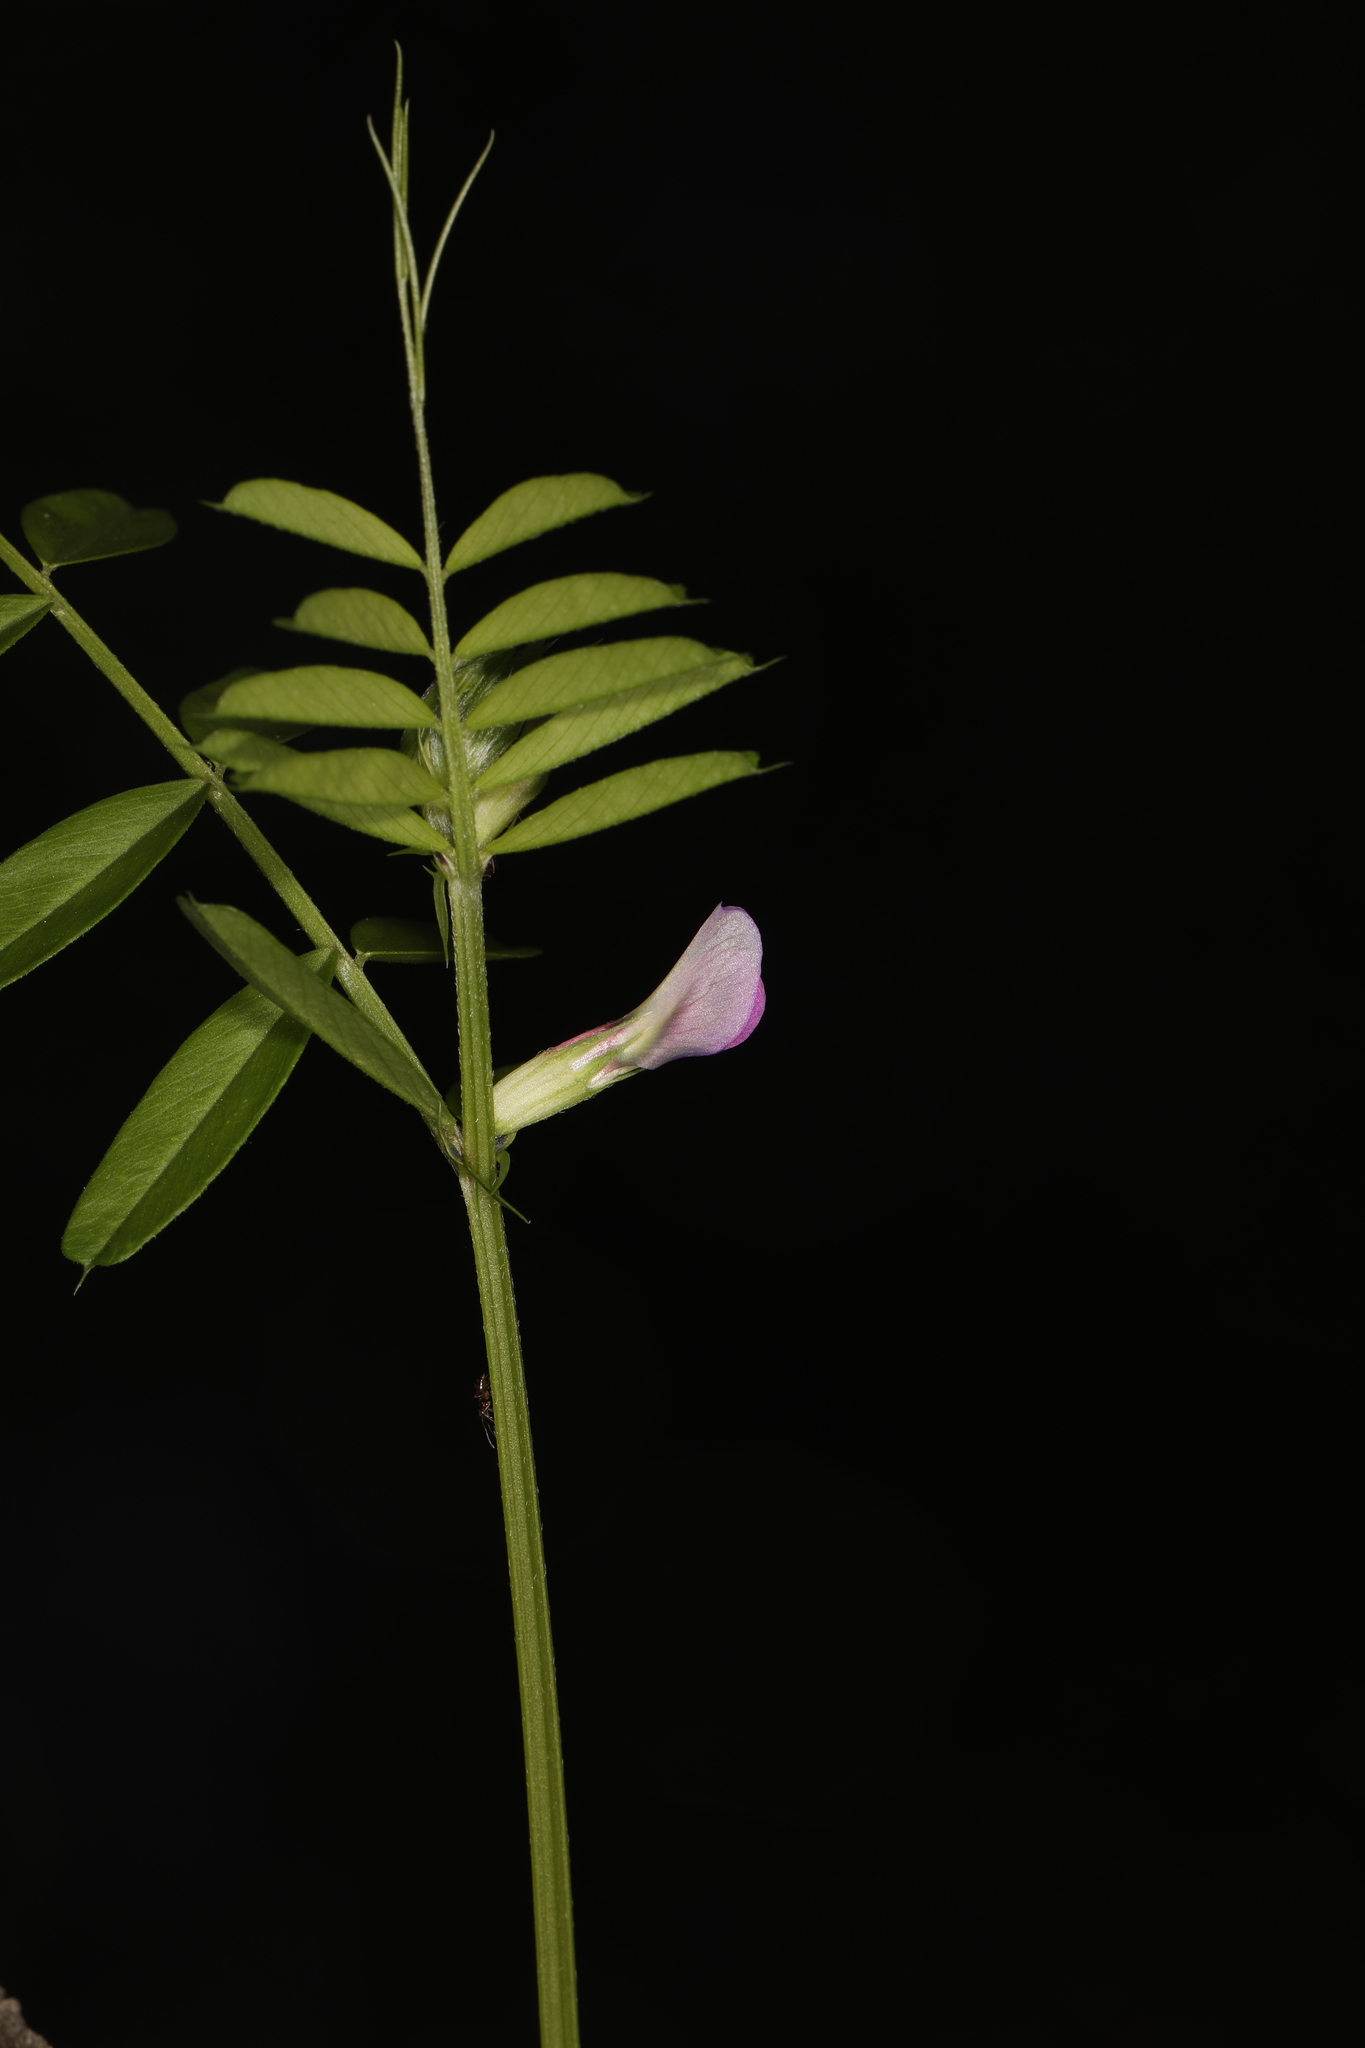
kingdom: Plantae
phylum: Tracheophyta
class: Magnoliopsida
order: Fabales
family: Fabaceae
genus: Vicia
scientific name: Vicia sativa
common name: Garden vetch
